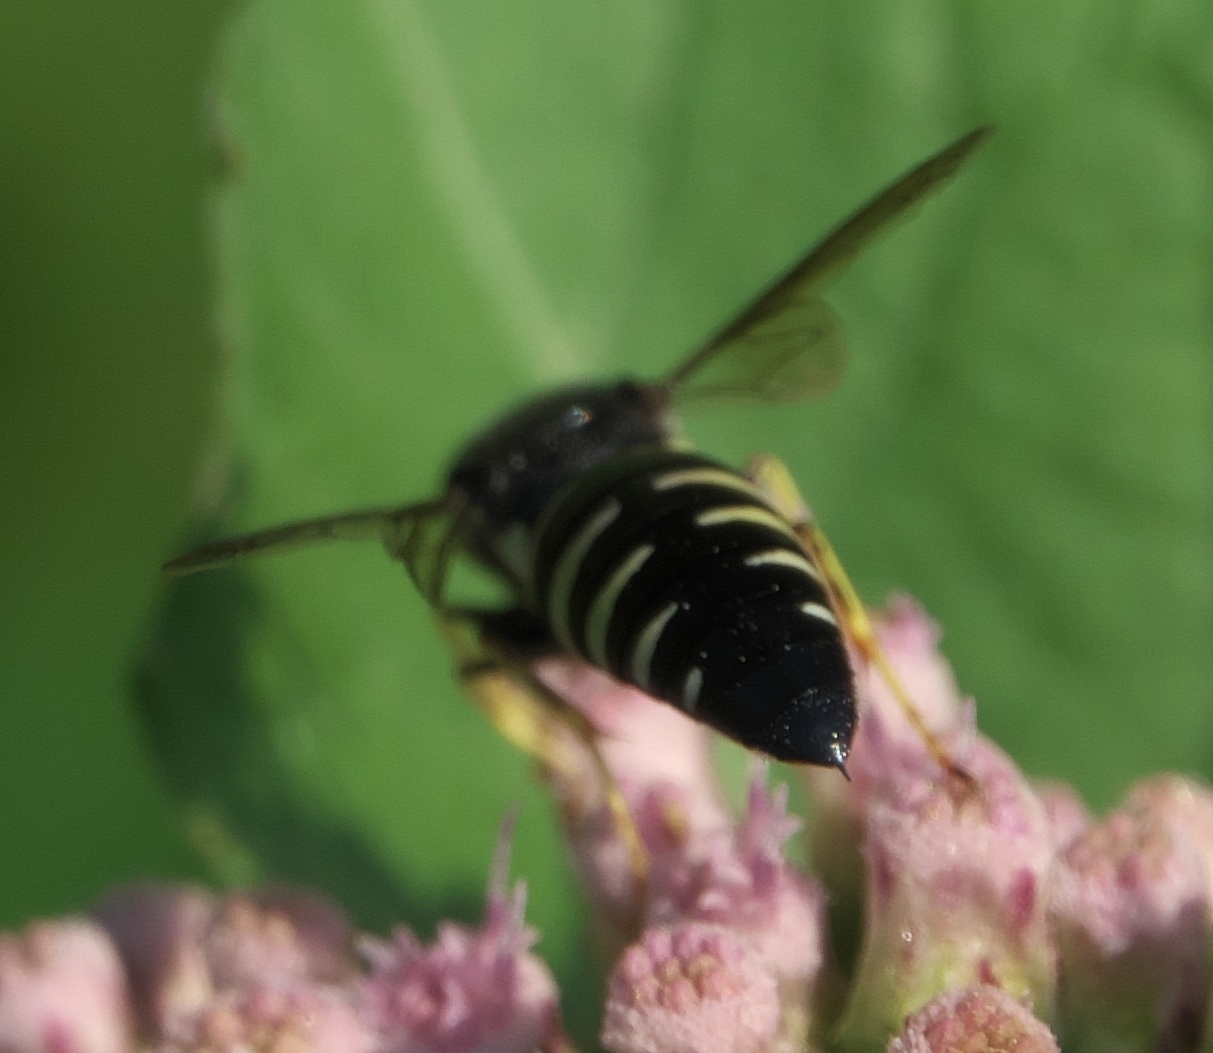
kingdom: Animalia
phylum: Arthropoda
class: Insecta
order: Hymenoptera
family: Crabronidae
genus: Bicyrtes
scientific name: Bicyrtes quadrifasciatus
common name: Four-banded stink bug hunter wasp
